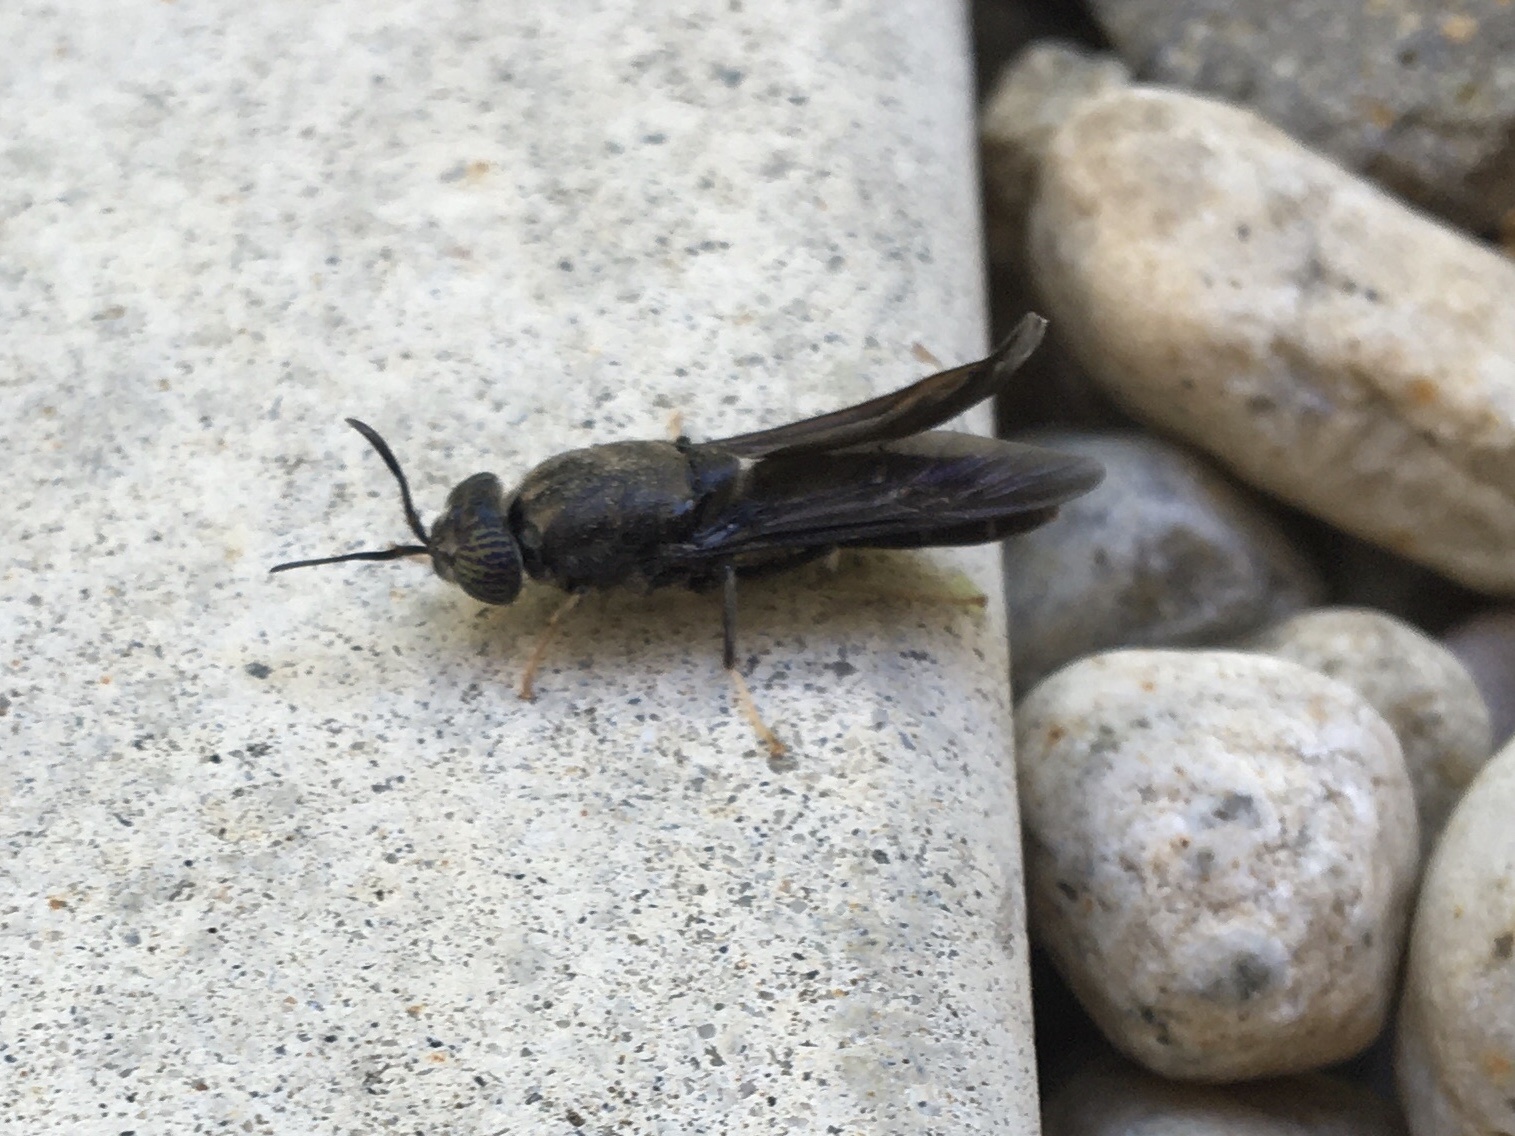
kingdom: Animalia
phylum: Arthropoda
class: Insecta
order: Diptera
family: Stratiomyidae
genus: Hermetia
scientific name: Hermetia illucens
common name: Black soldier fly
